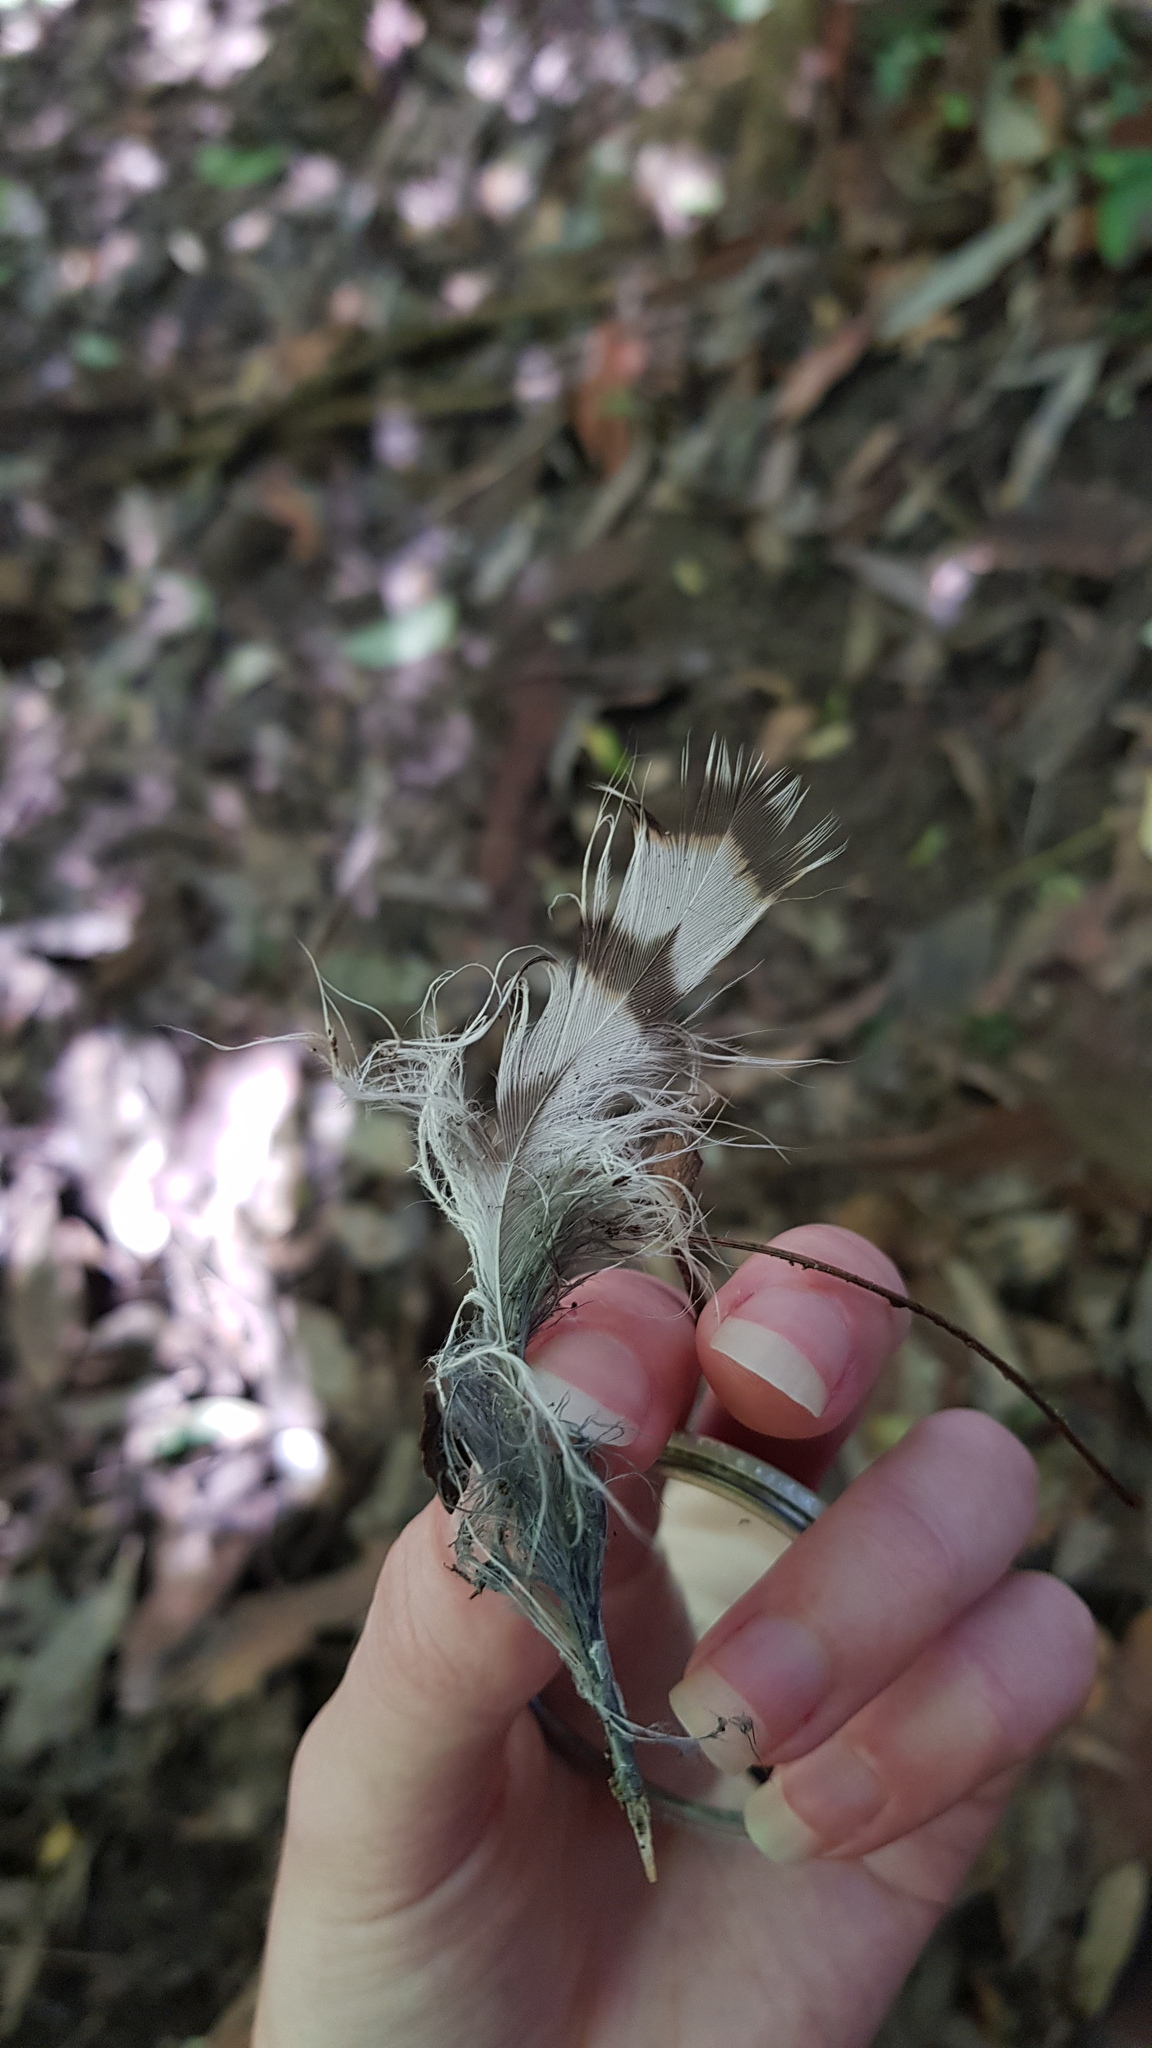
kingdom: Animalia
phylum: Chordata
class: Aves
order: Strigiformes
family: Strigidae
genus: Ninox
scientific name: Ninox strenua
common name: Powerful owl
